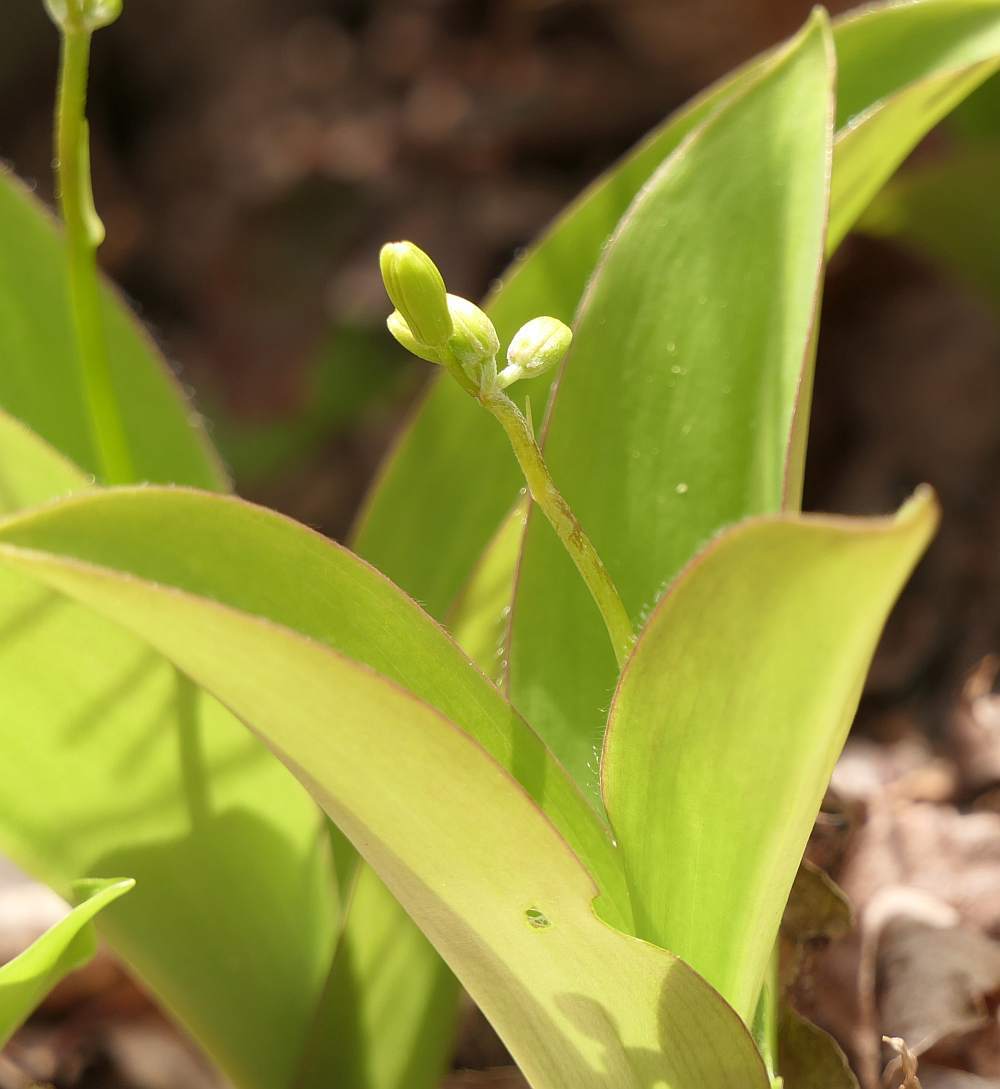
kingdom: Plantae
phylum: Tracheophyta
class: Liliopsida
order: Liliales
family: Liliaceae
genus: Clintonia
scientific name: Clintonia borealis
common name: Yellow clintonia
